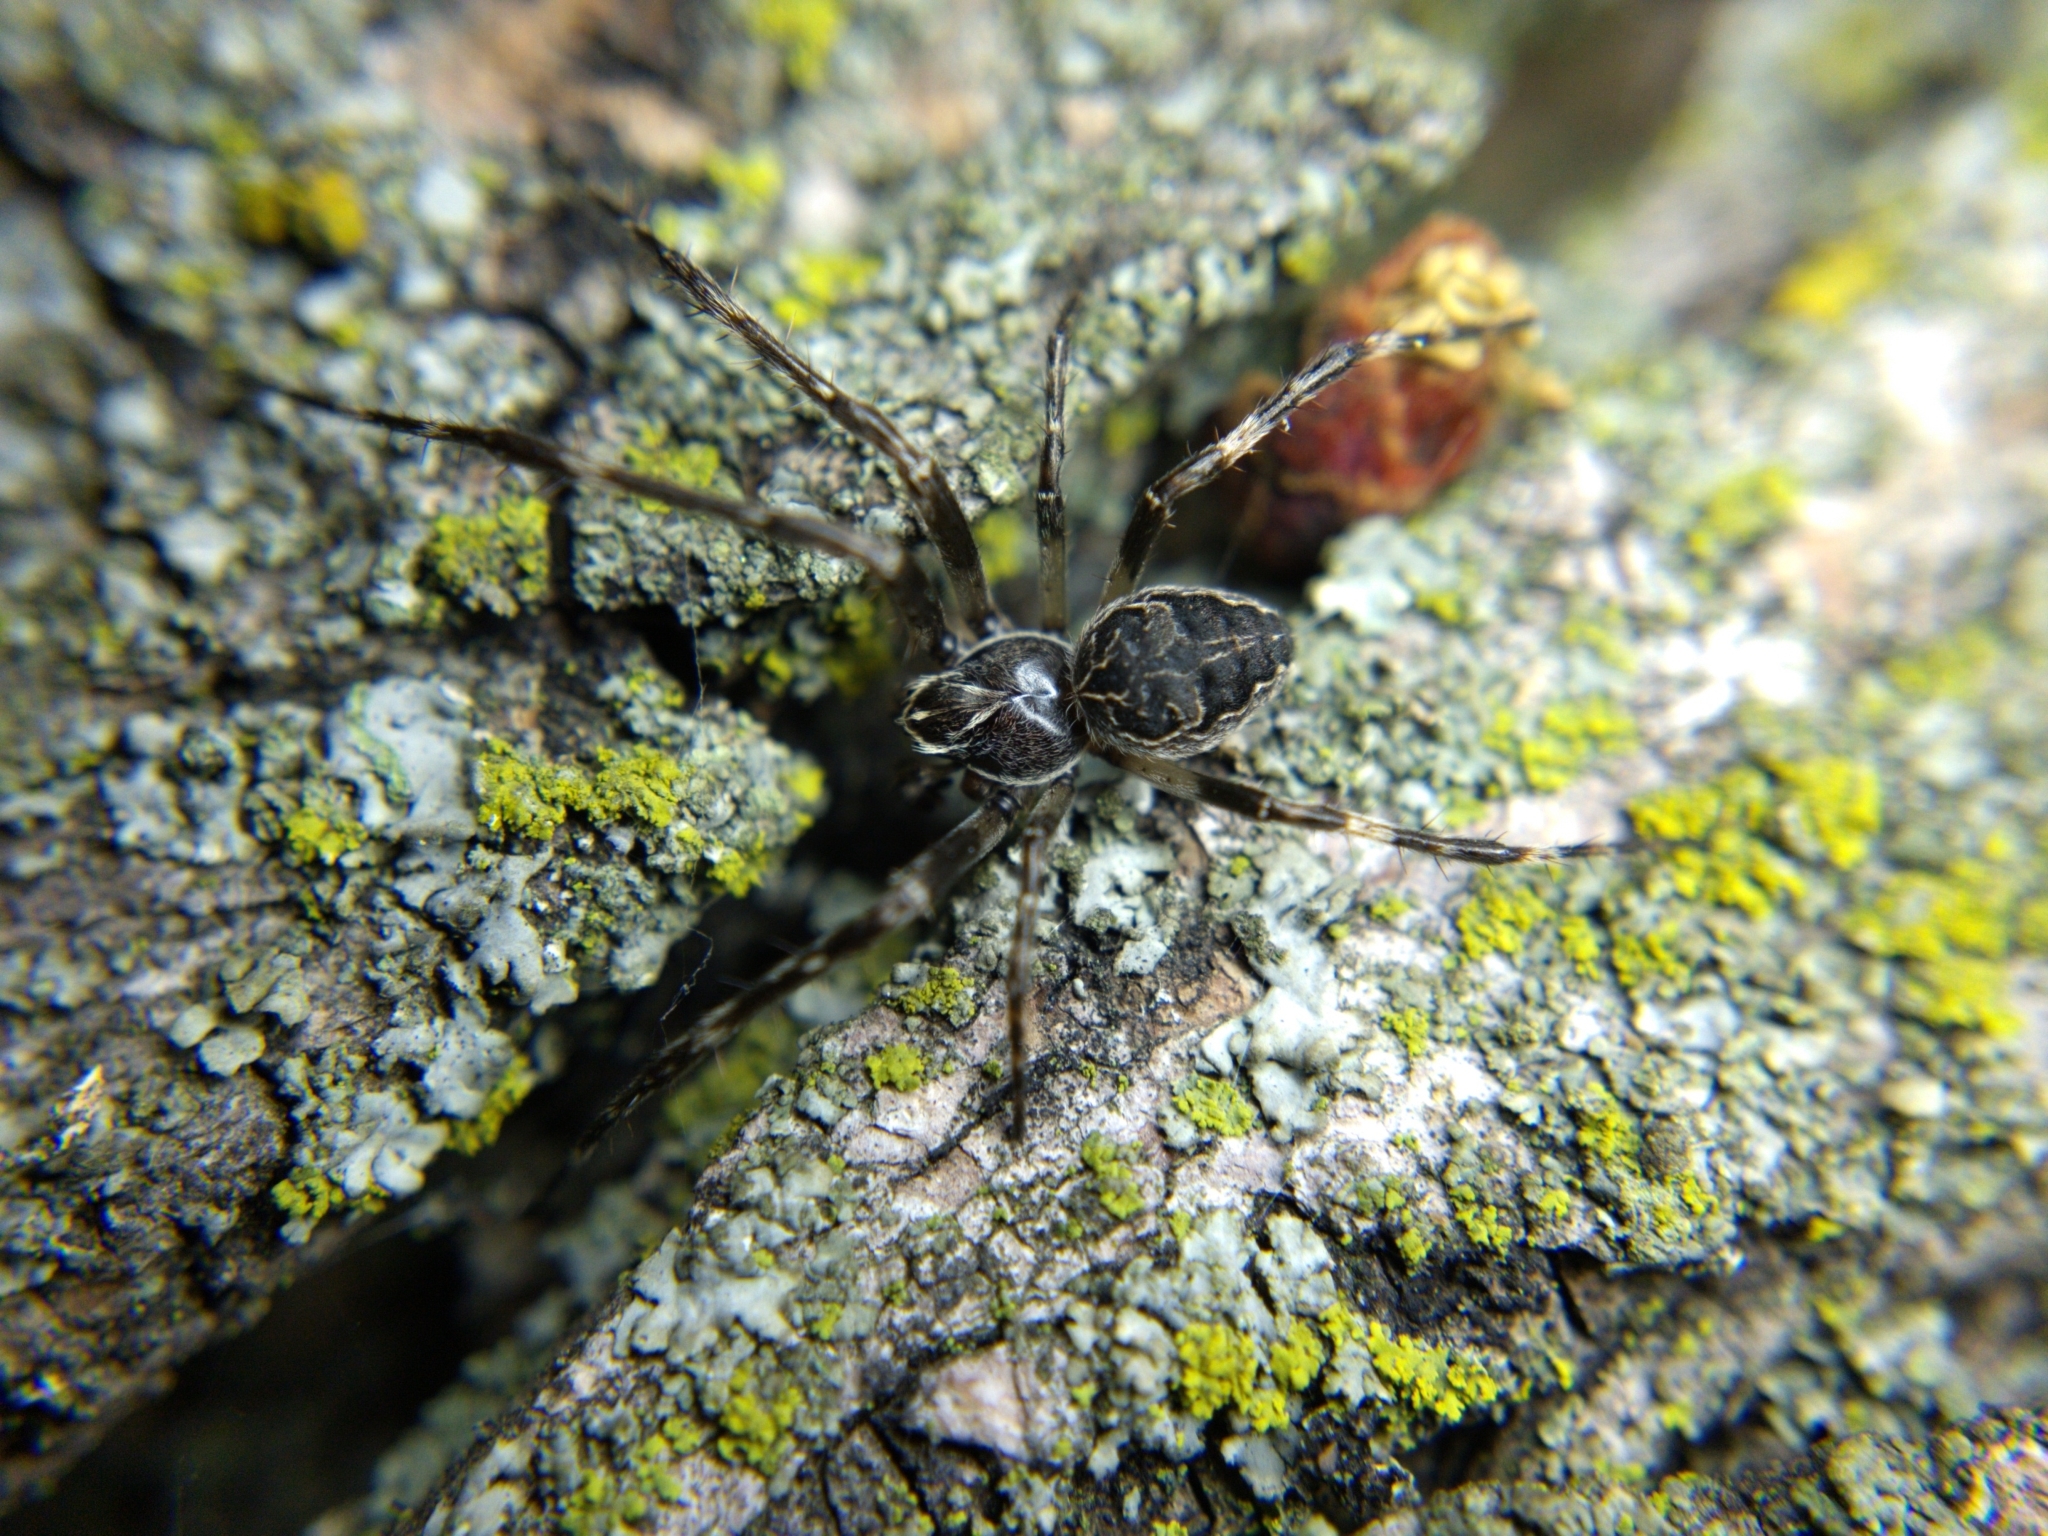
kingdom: Animalia
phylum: Arthropoda
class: Arachnida
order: Araneae
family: Araneidae
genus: Larinioides
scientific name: Larinioides sclopetarius
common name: Bridge orbweaver
